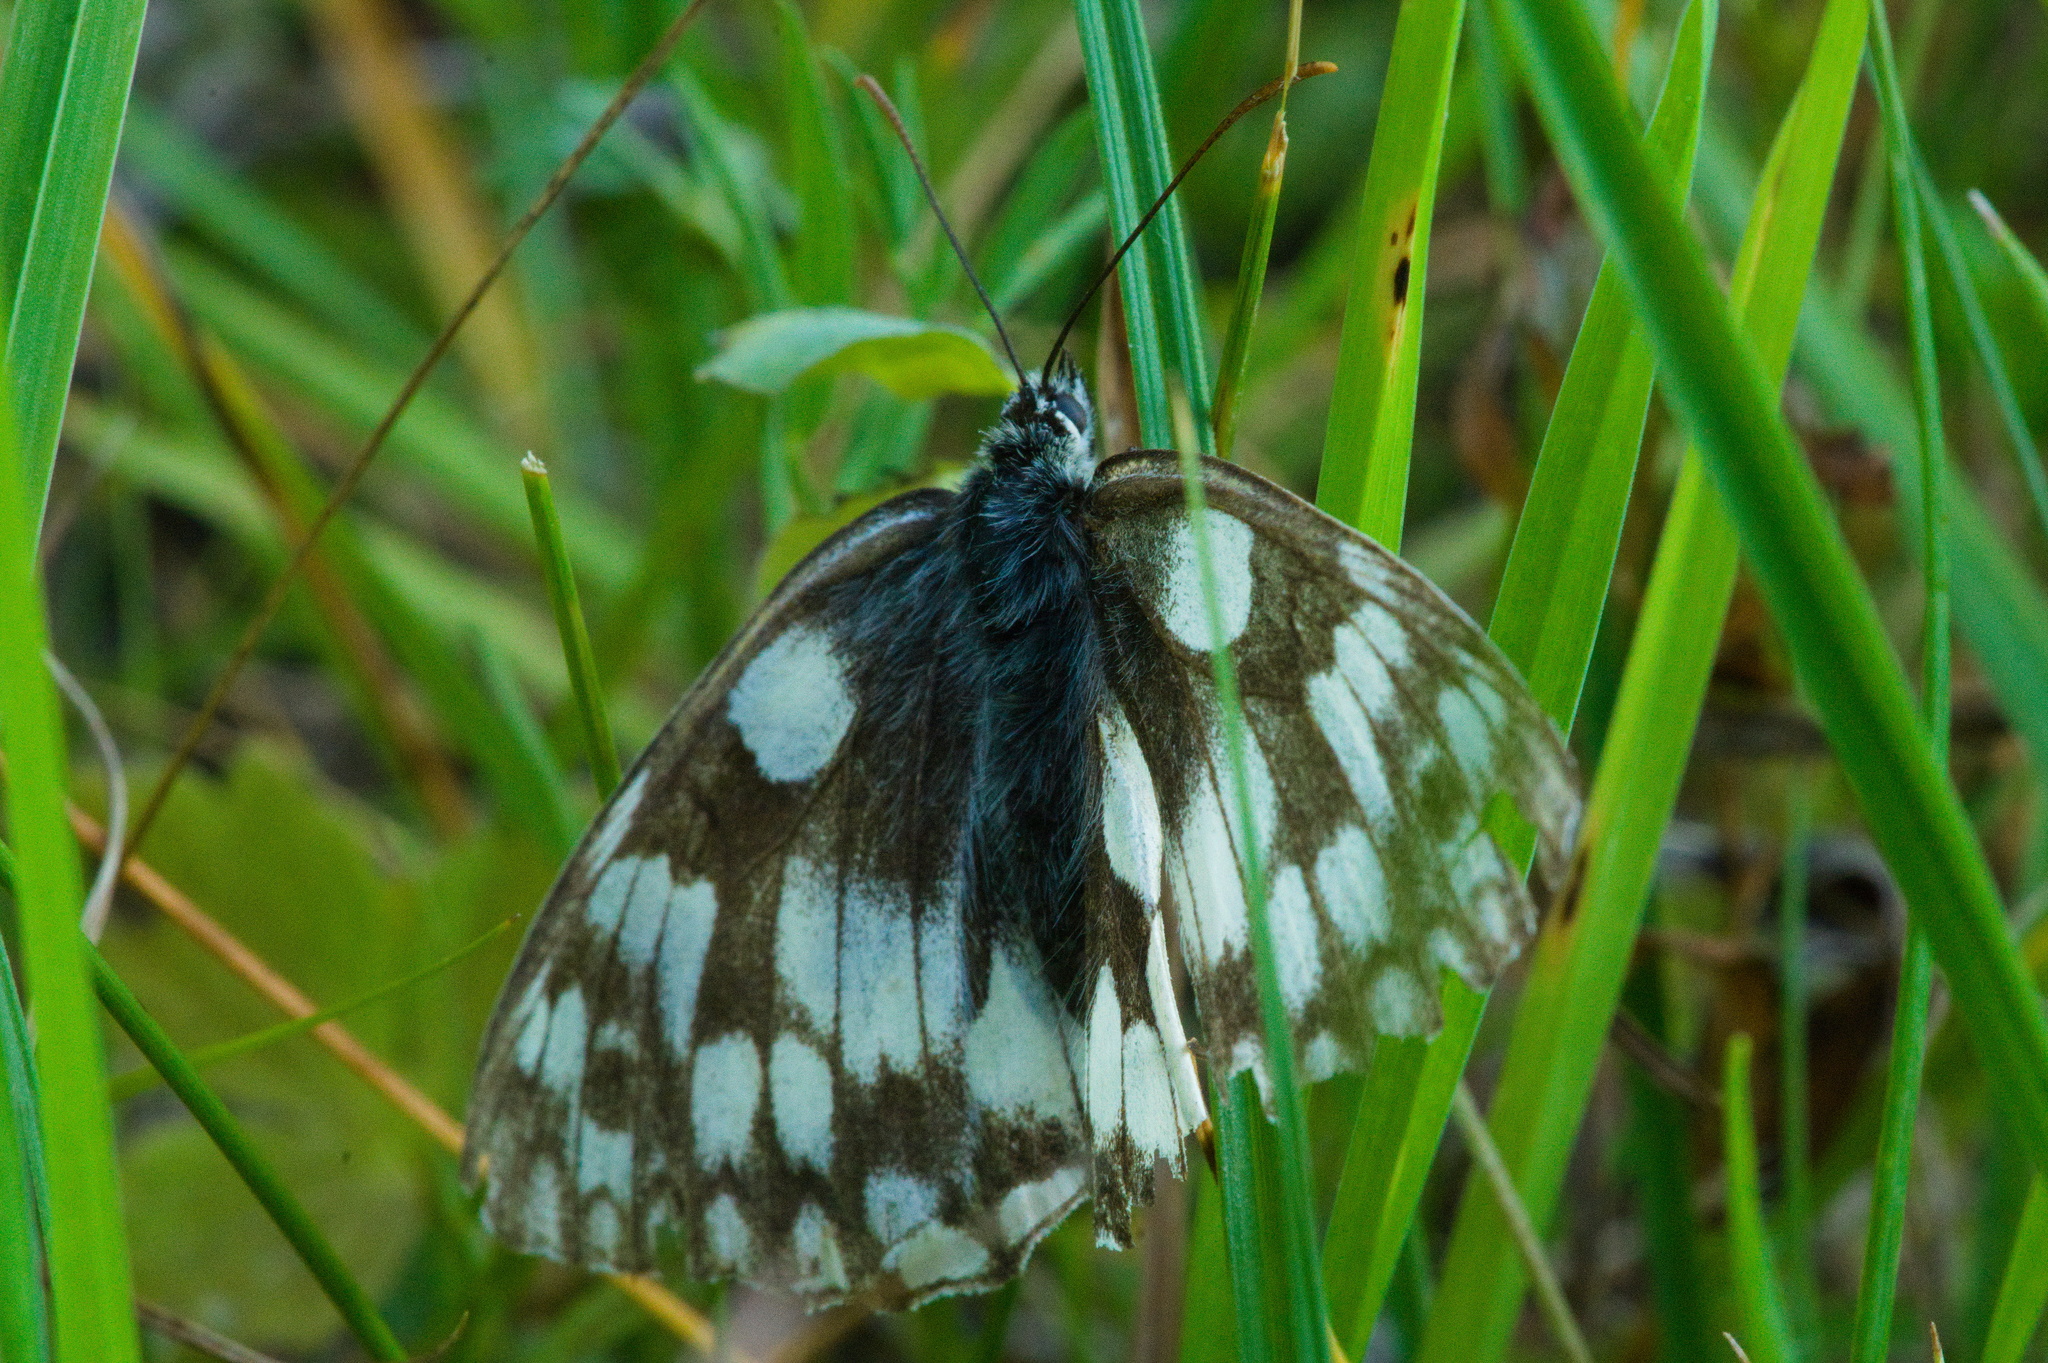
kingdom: Animalia
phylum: Arthropoda
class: Insecta
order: Lepidoptera
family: Nymphalidae
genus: Melanargia
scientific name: Melanargia galathea
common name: Marbled white
